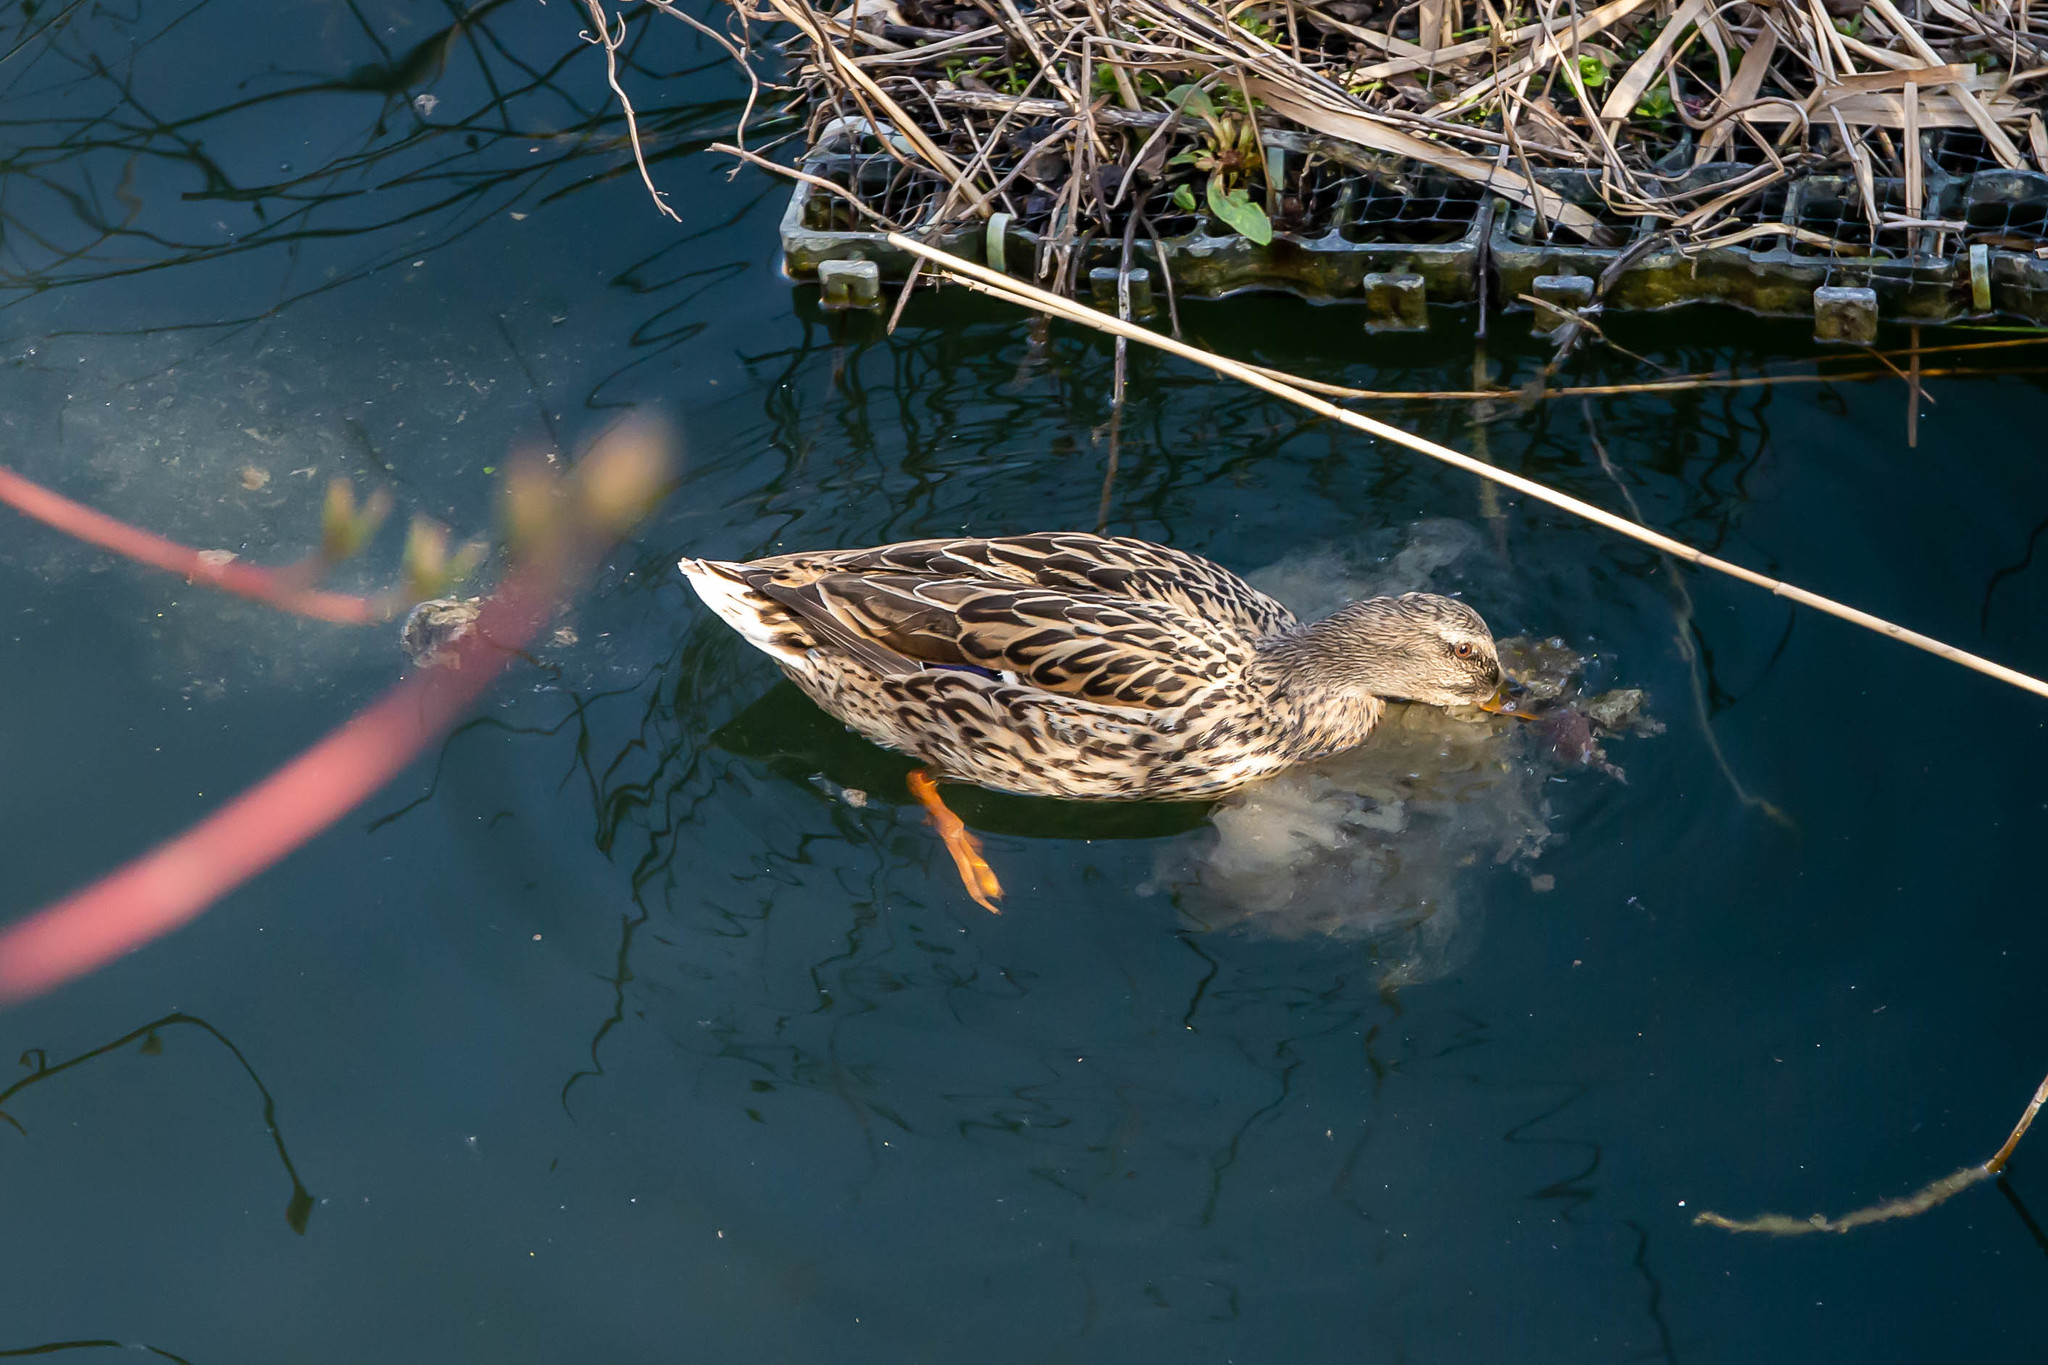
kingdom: Animalia
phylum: Chordata
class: Aves
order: Anseriformes
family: Anatidae
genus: Anas
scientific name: Anas platyrhynchos
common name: Mallard
